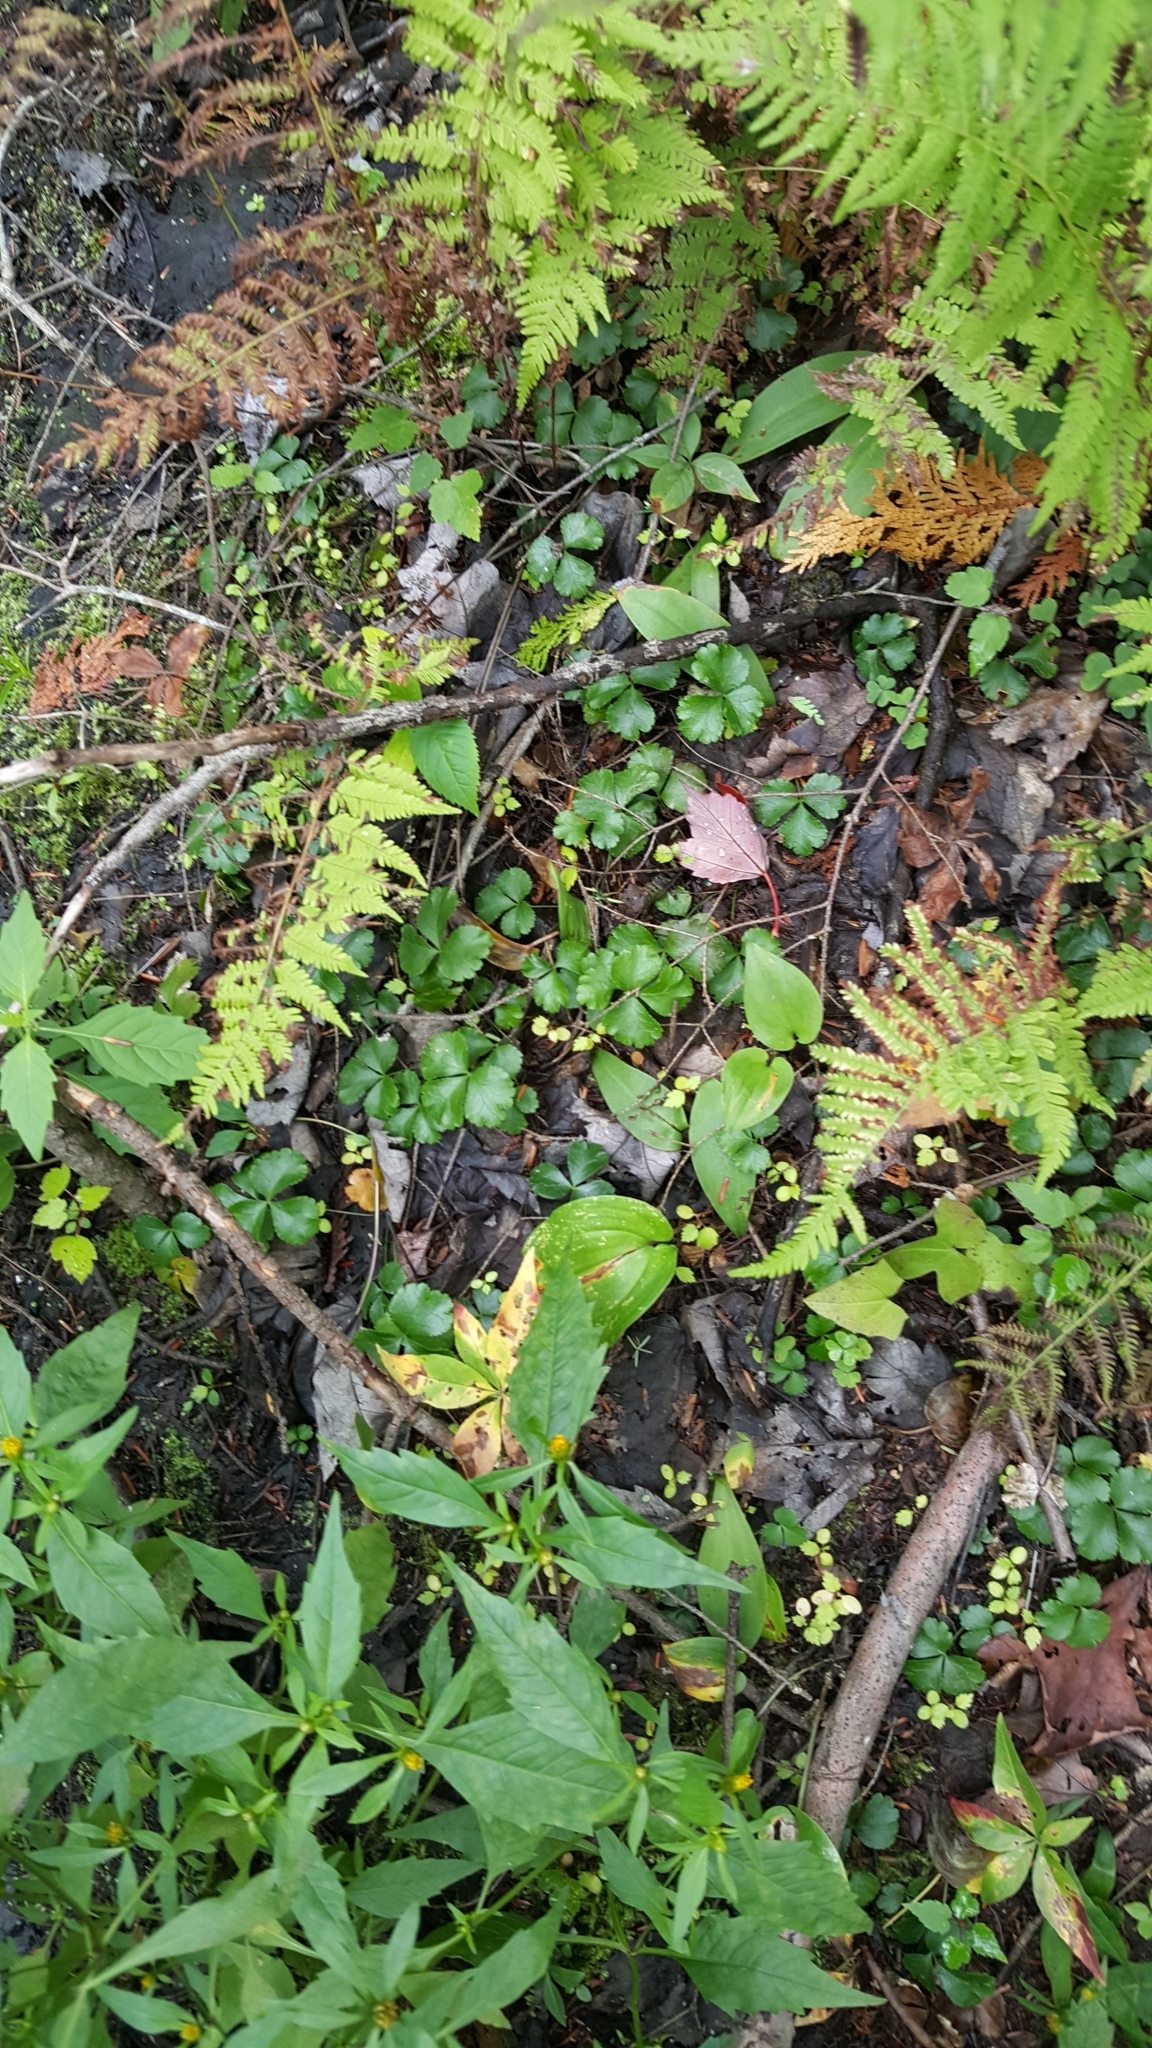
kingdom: Plantae
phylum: Tracheophyta
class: Magnoliopsida
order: Ranunculales
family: Ranunculaceae
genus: Coptis
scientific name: Coptis trifolia
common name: Canker-root
